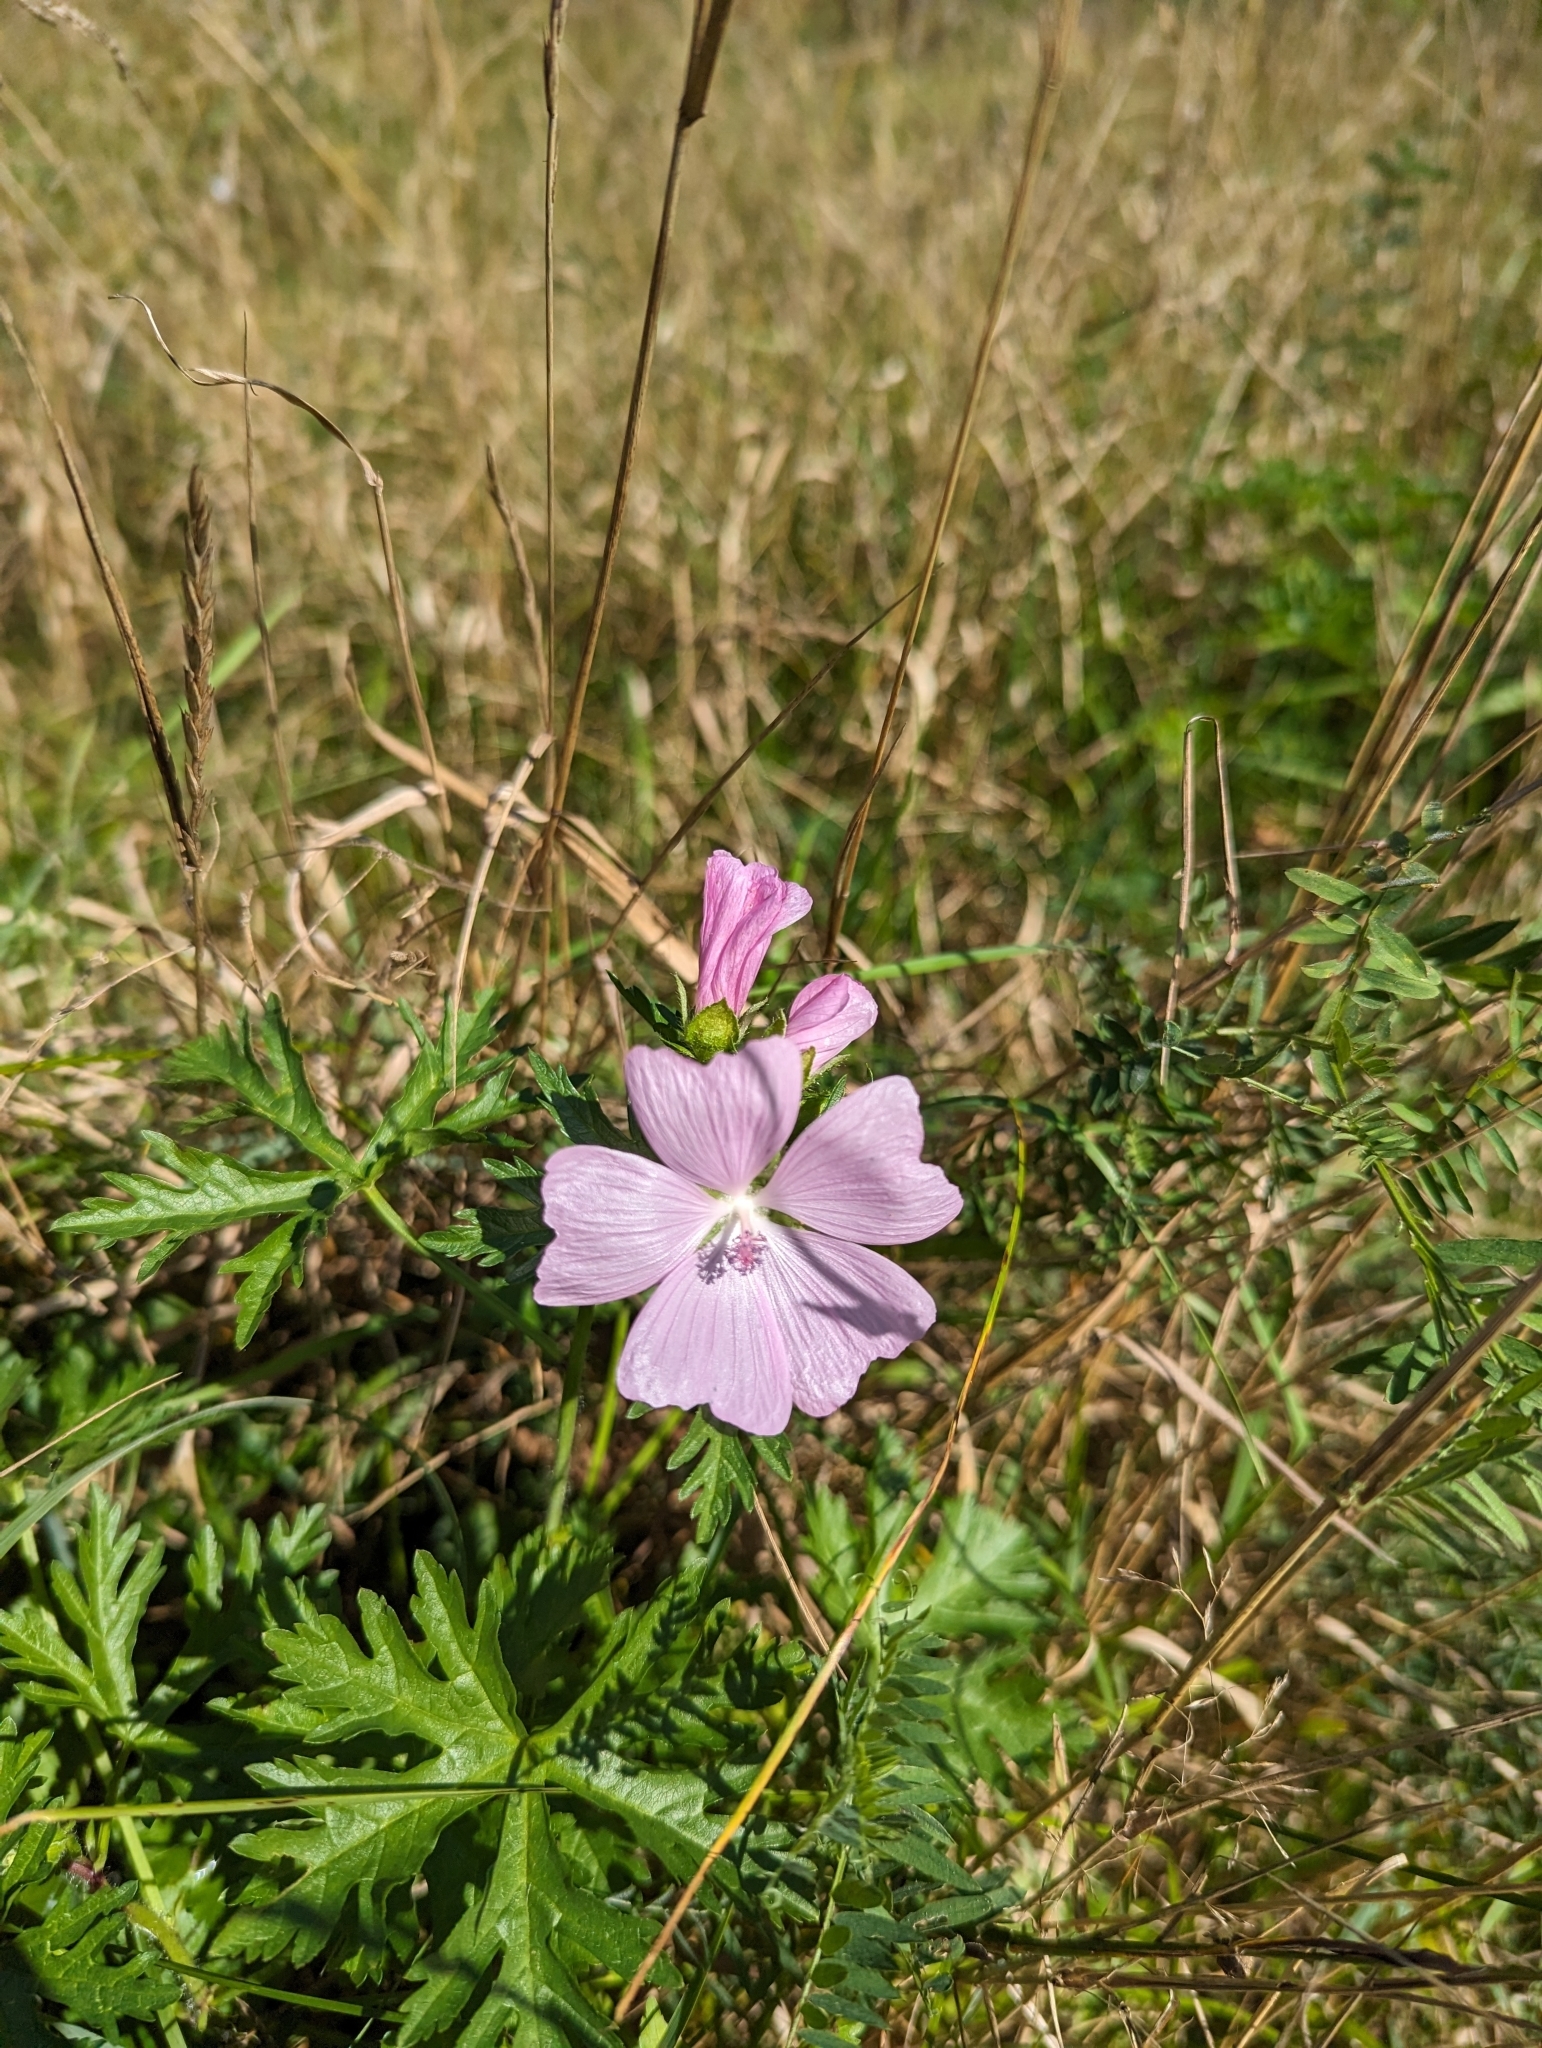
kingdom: Plantae
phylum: Tracheophyta
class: Magnoliopsida
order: Malvales
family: Malvaceae
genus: Malva
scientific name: Malva moschata
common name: Musk mallow
